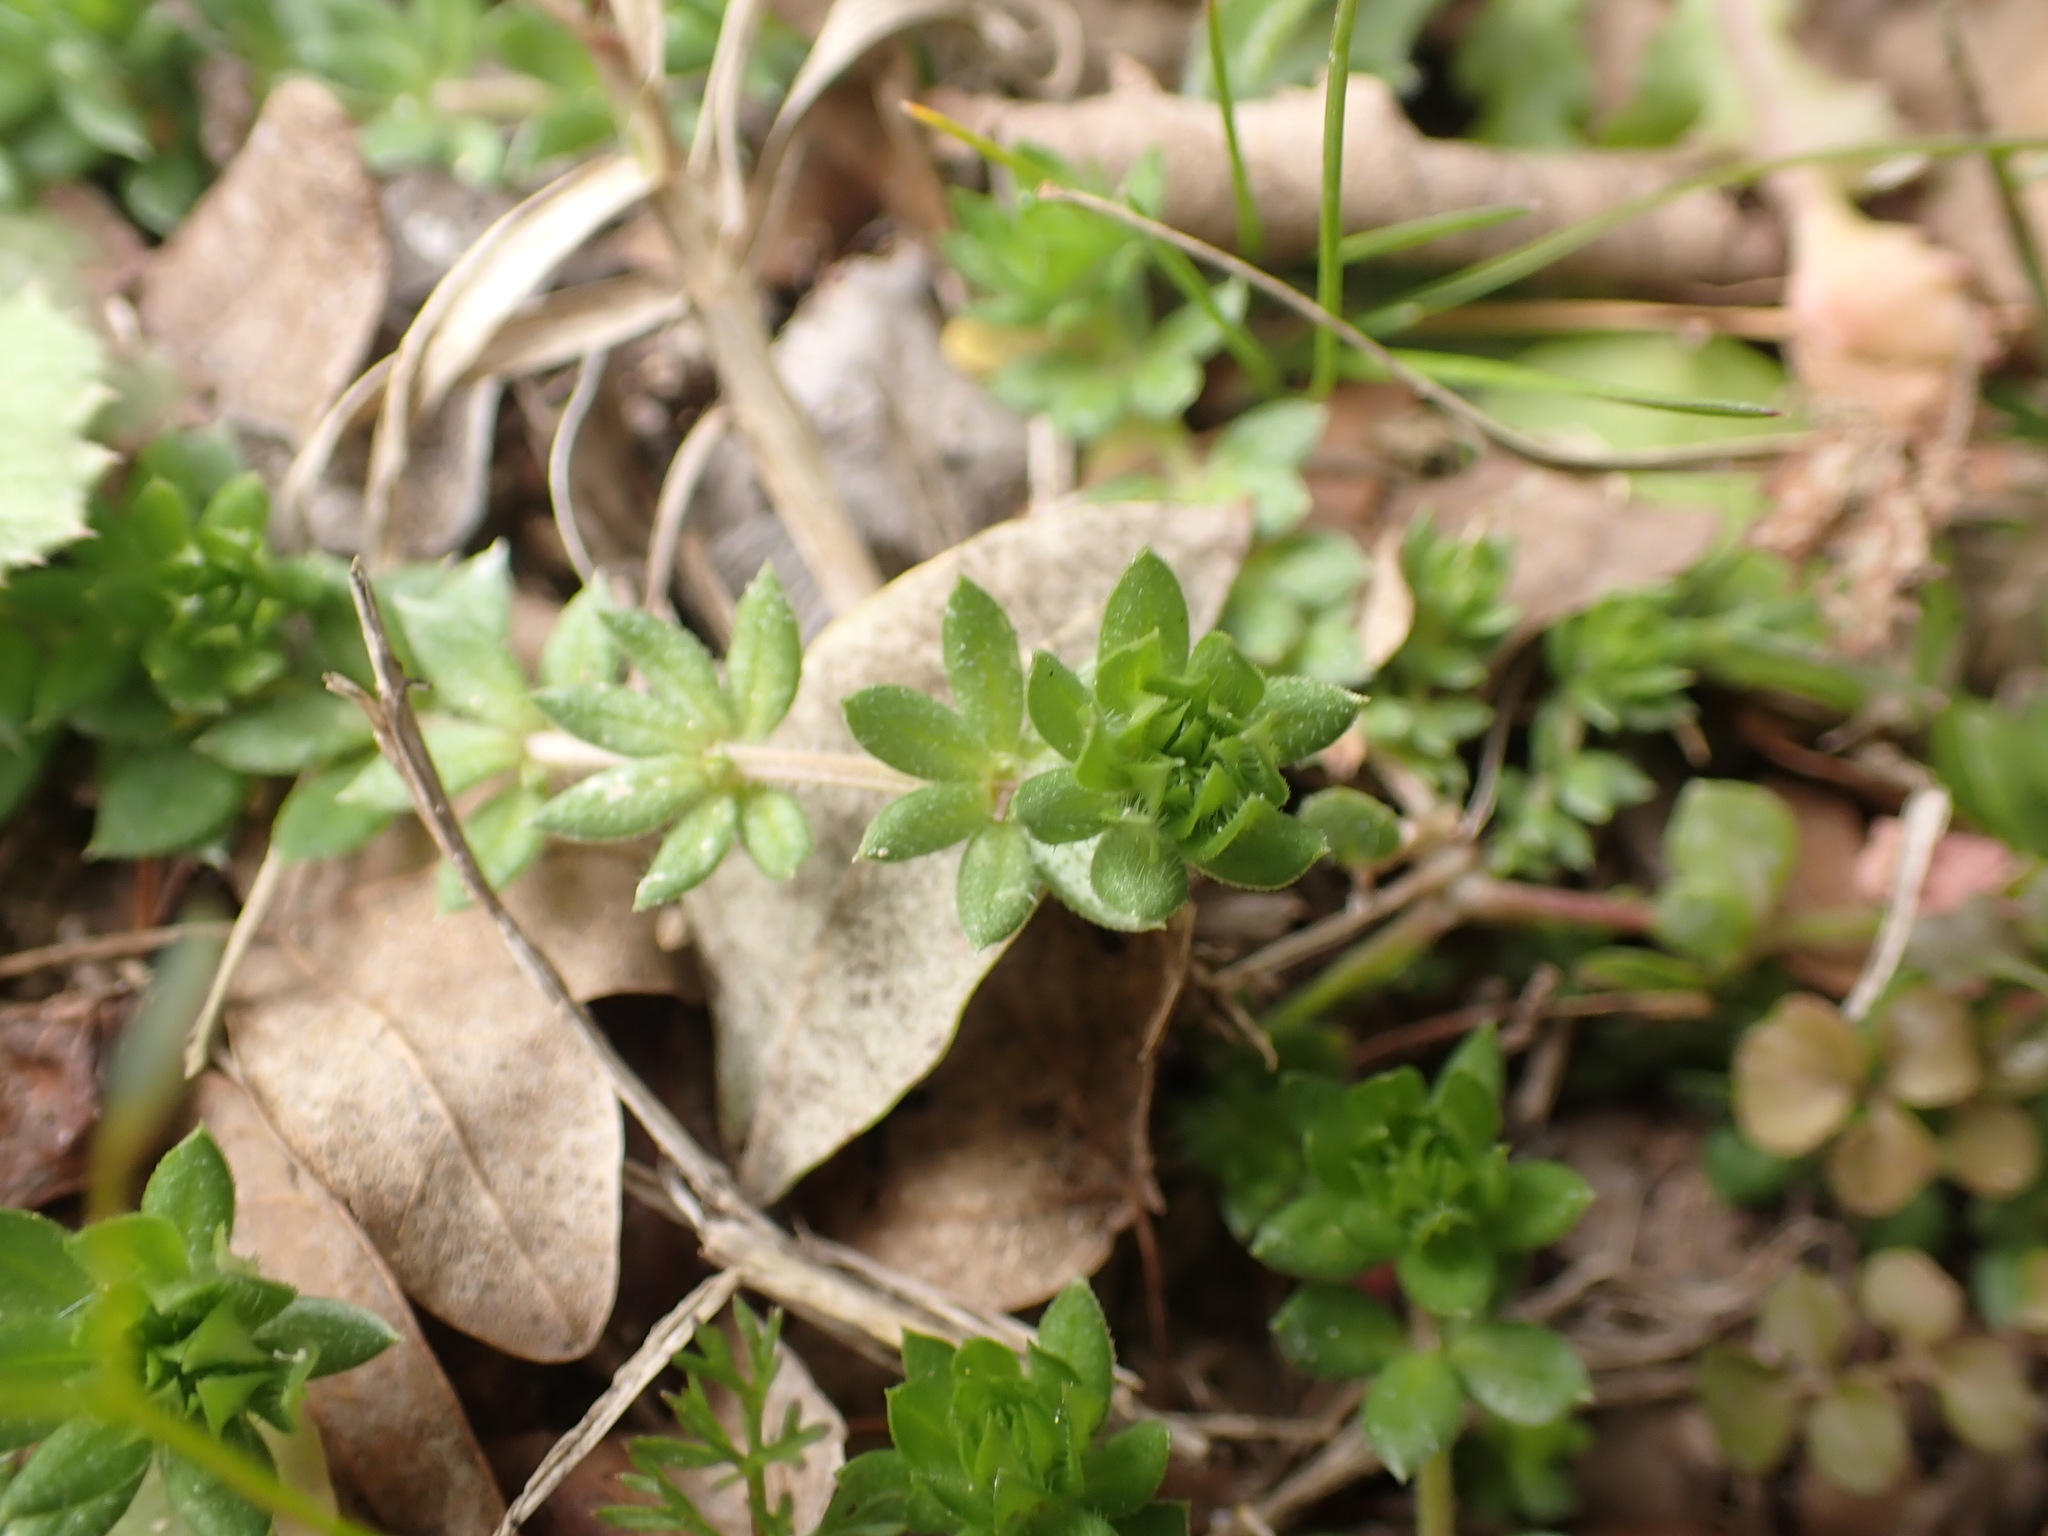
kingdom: Plantae
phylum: Tracheophyta
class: Magnoliopsida
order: Gentianales
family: Rubiaceae
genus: Sherardia
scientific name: Sherardia arvensis
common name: Field madder
